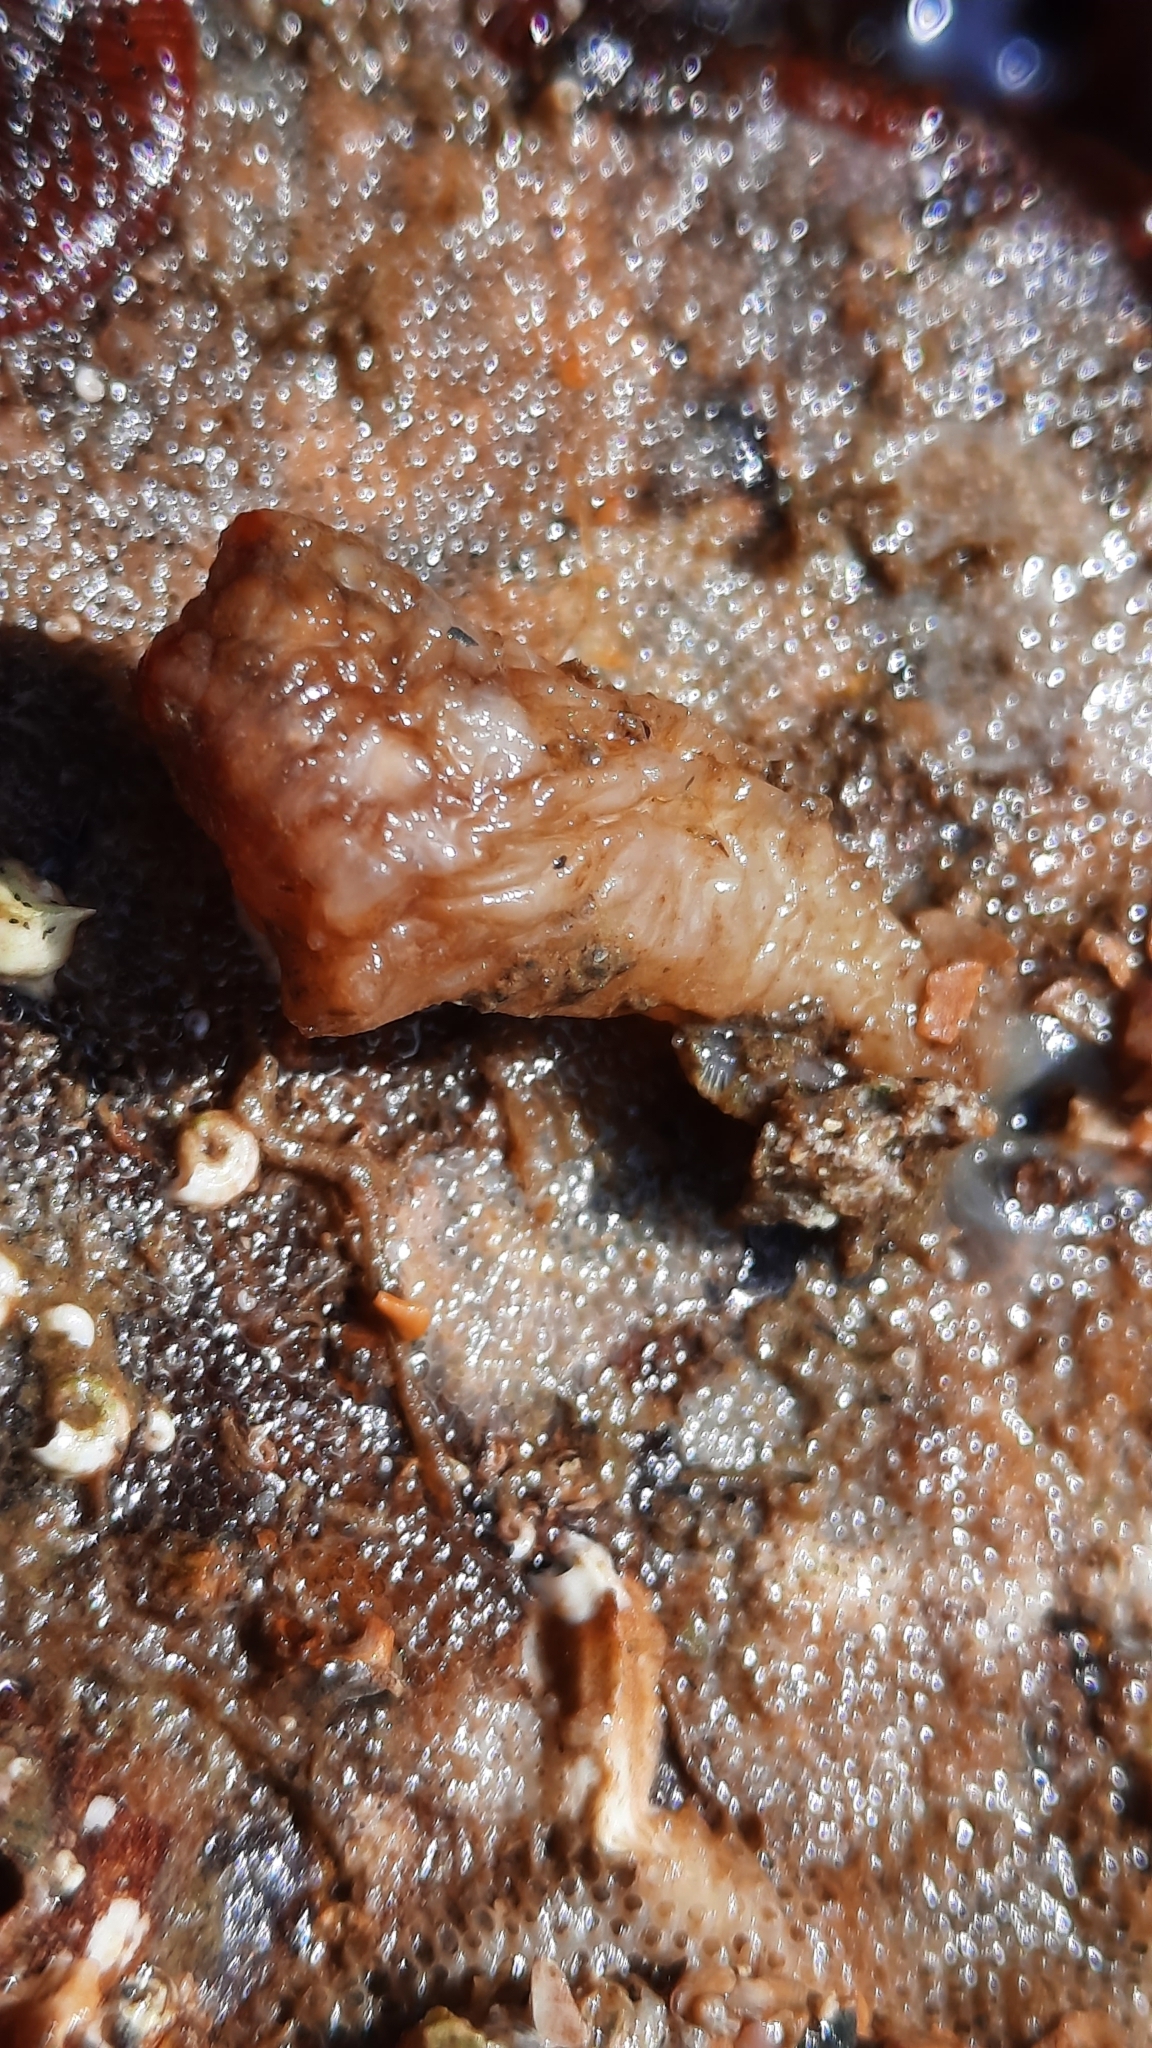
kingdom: Animalia
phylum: Chordata
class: Ascidiacea
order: Stolidobranchia
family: Styelidae
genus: Styela
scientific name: Styela clava
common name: Leathery sea squirt
